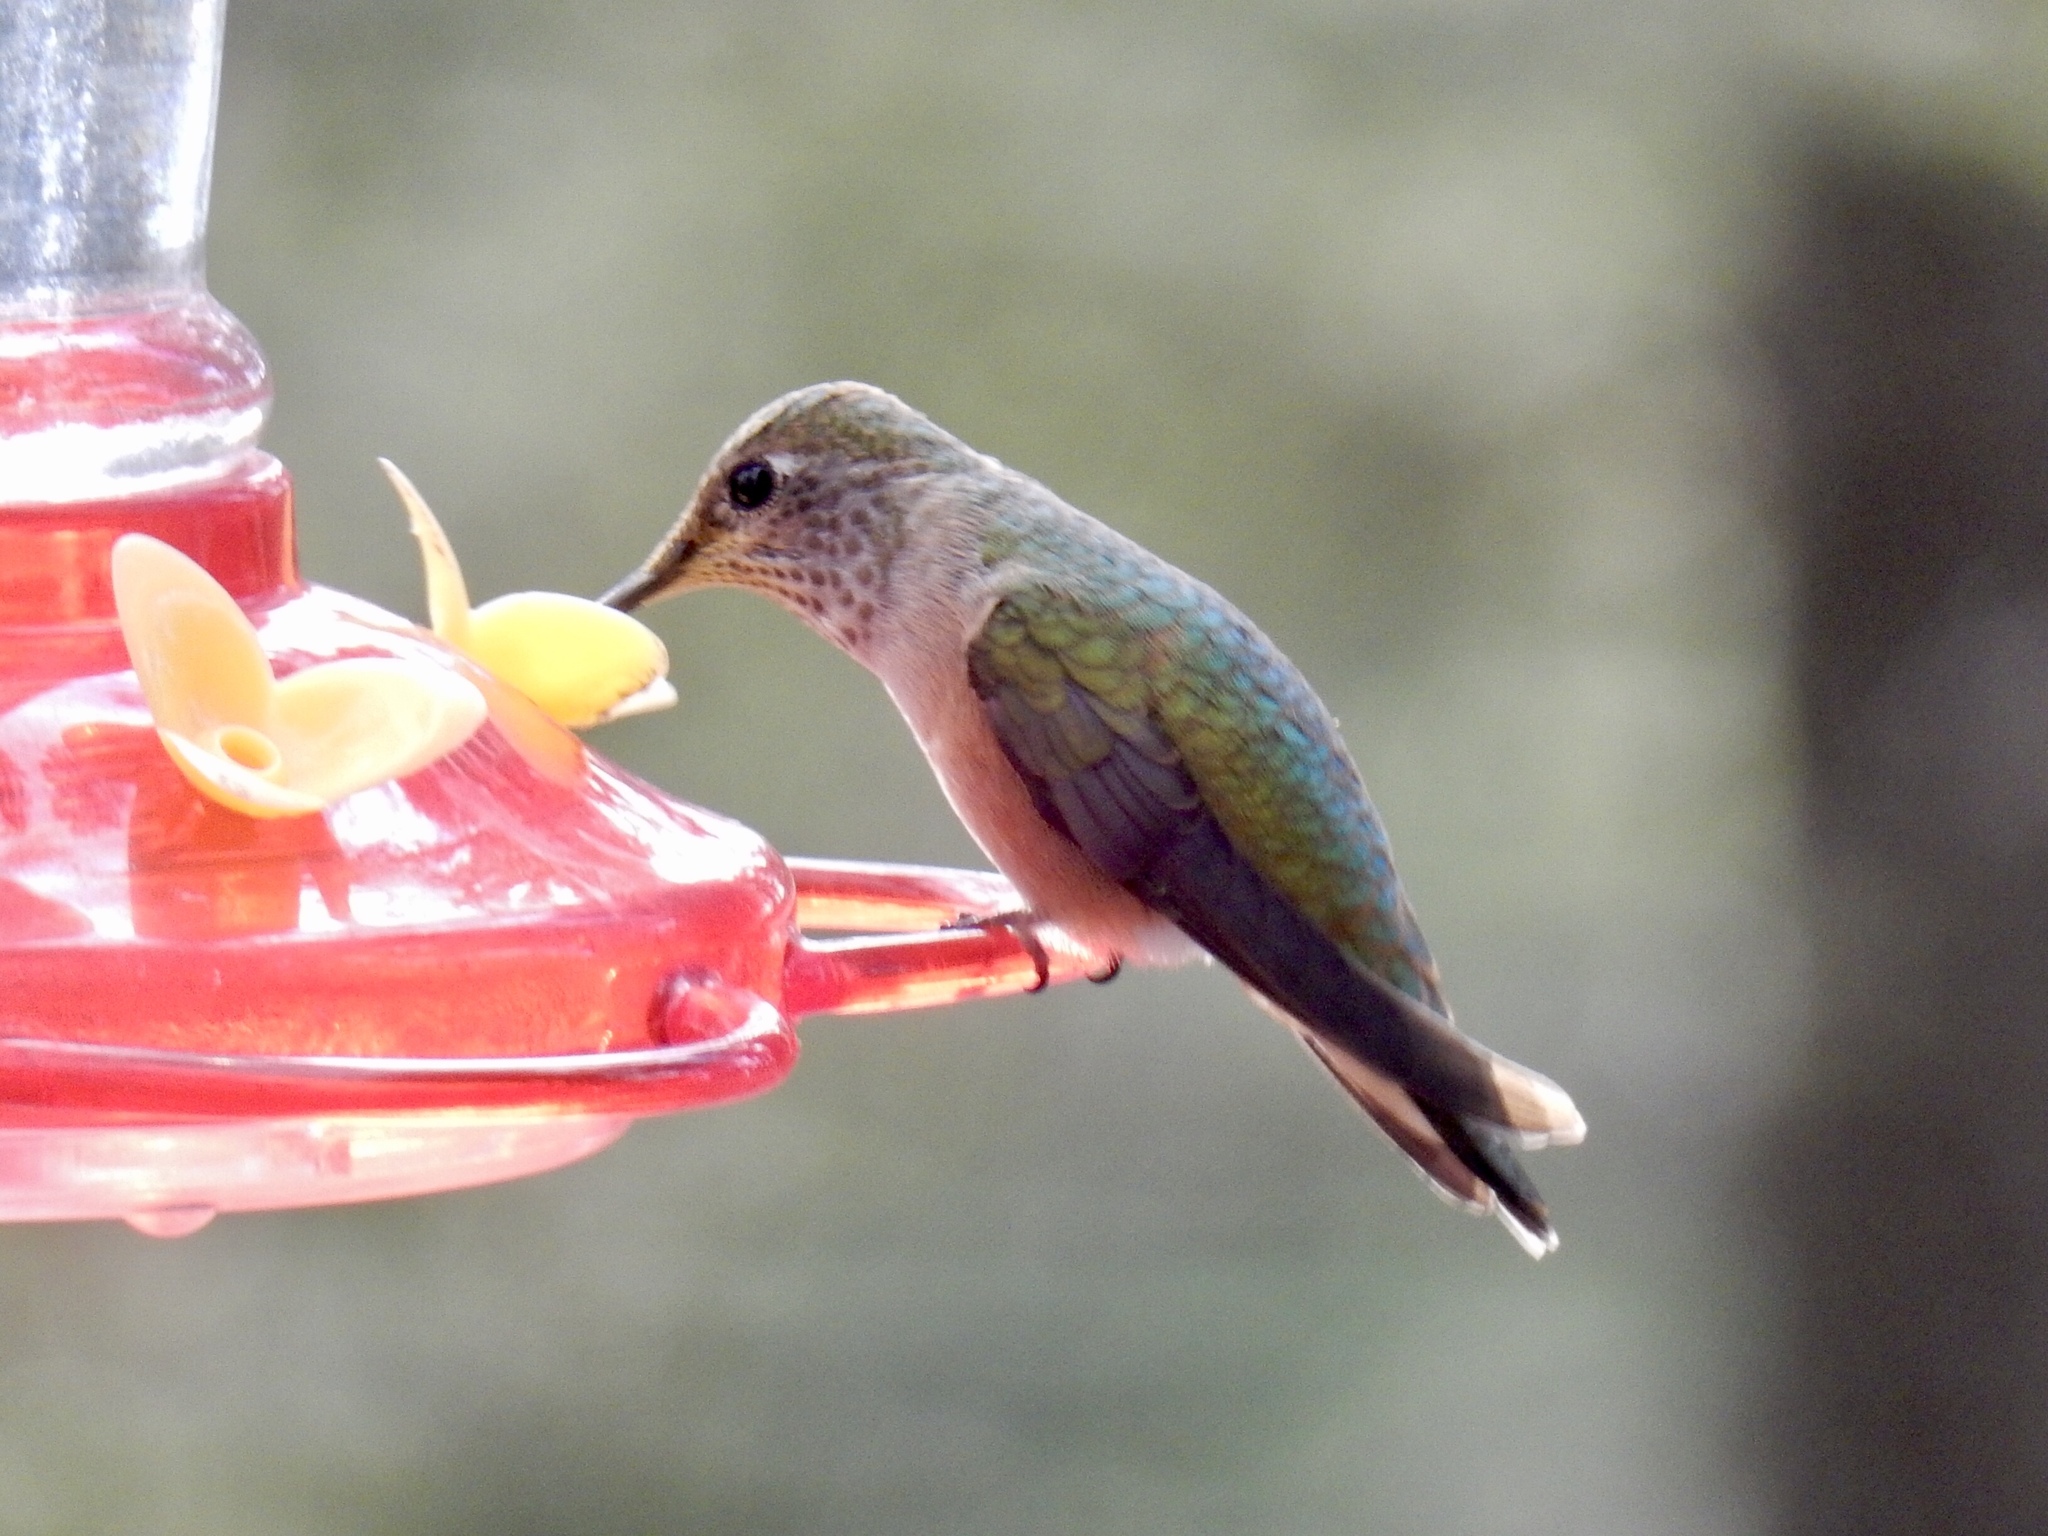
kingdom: Animalia
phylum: Chordata
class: Aves
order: Apodiformes
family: Trochilidae
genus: Selasphorus
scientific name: Selasphorus platycercus
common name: Broad-tailed hummingbird
